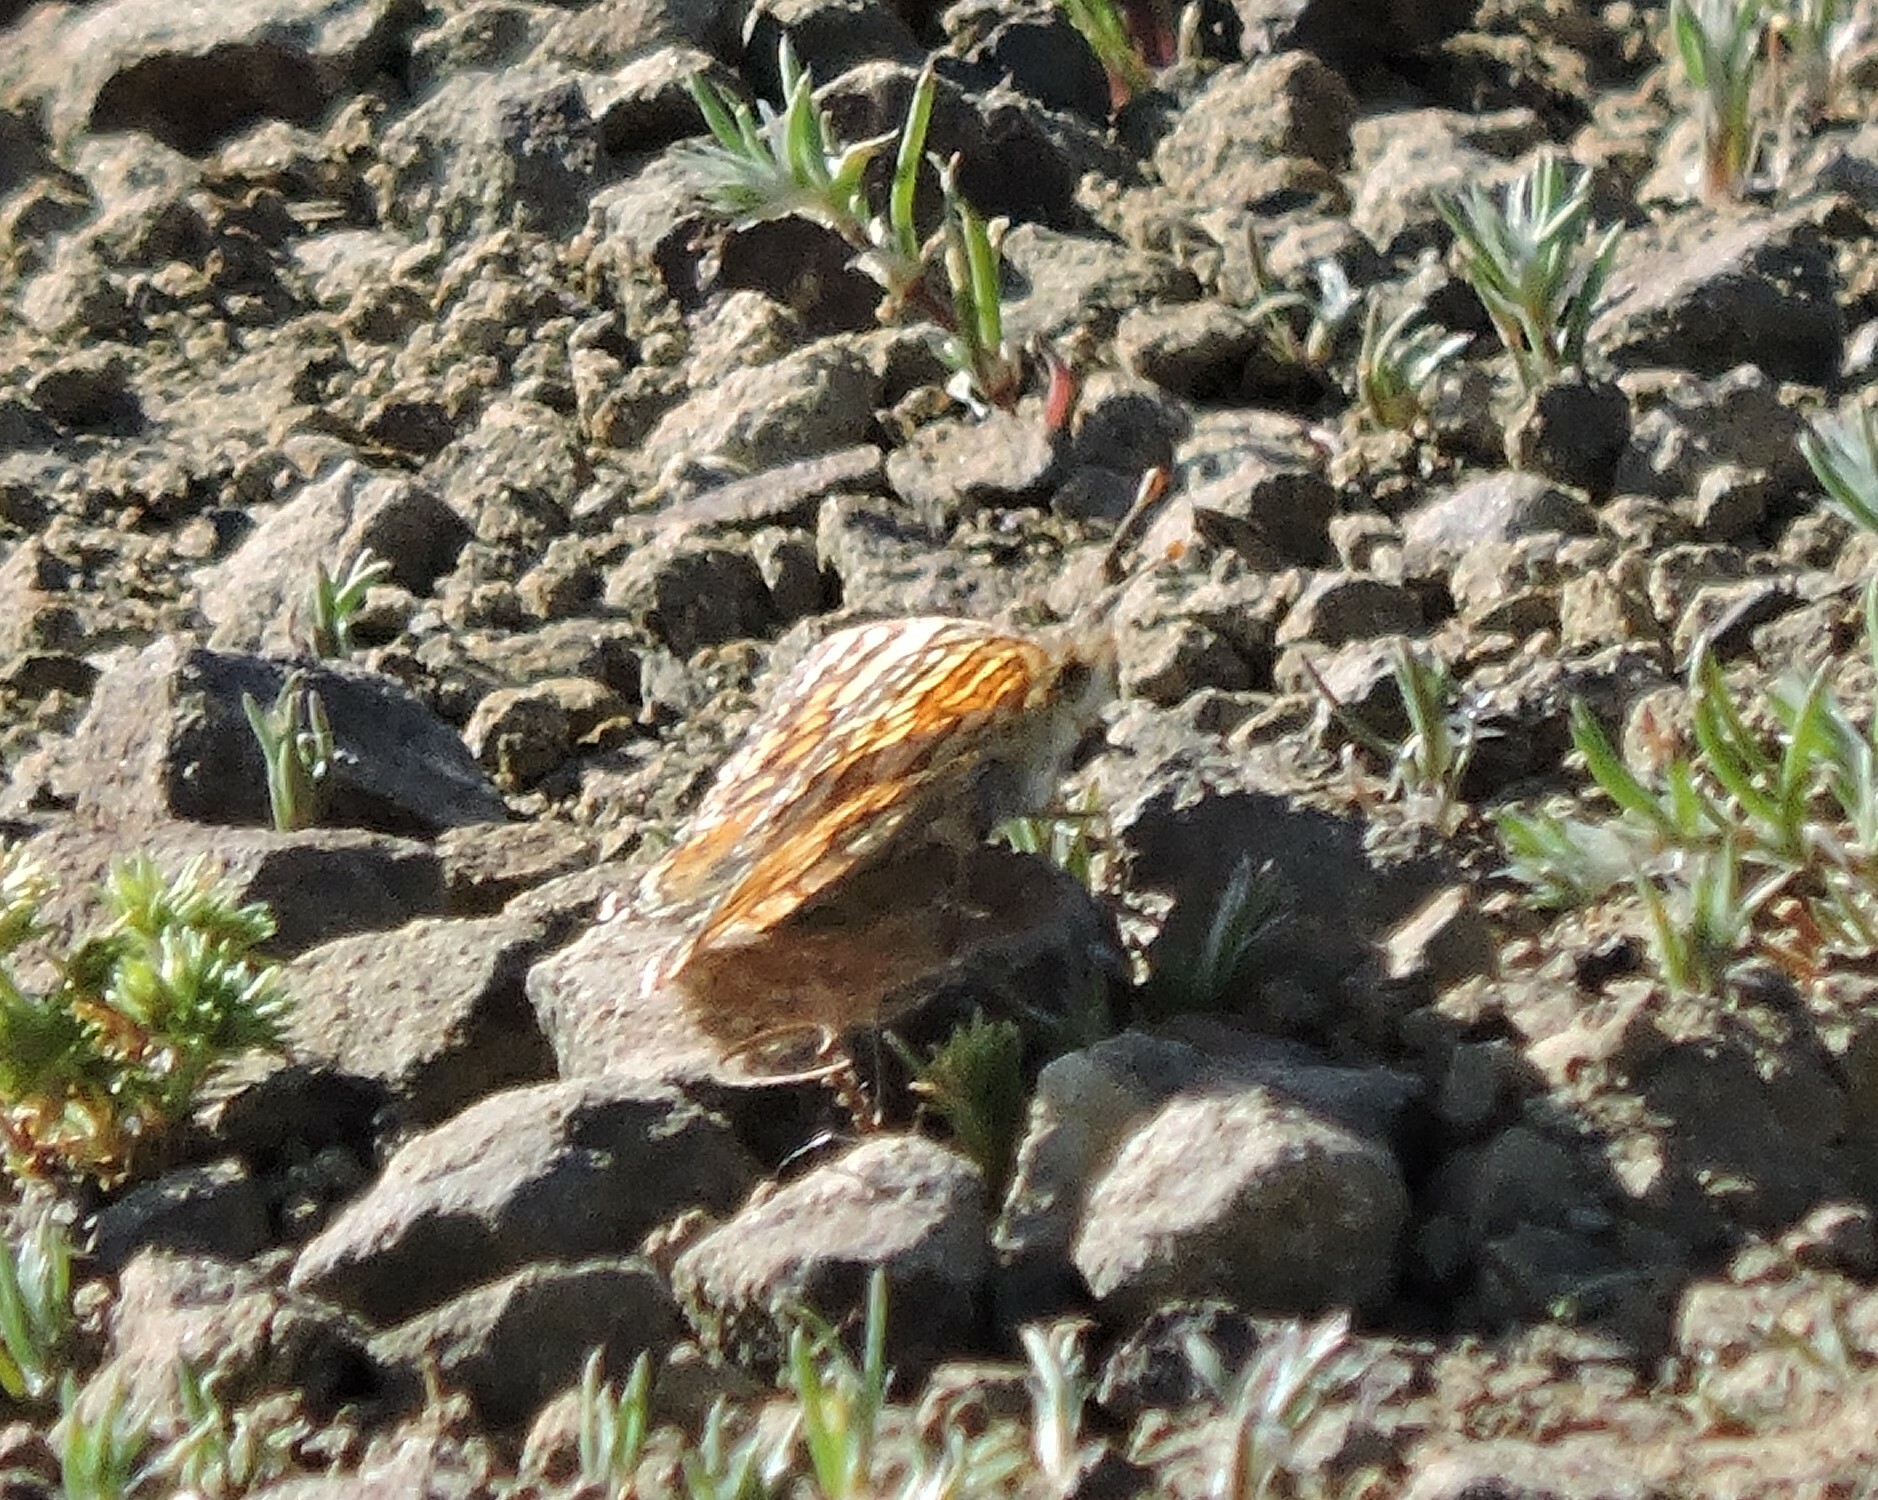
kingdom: Animalia
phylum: Arthropoda
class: Insecta
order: Lepidoptera
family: Nymphalidae
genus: Eresia
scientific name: Eresia aveyrona
